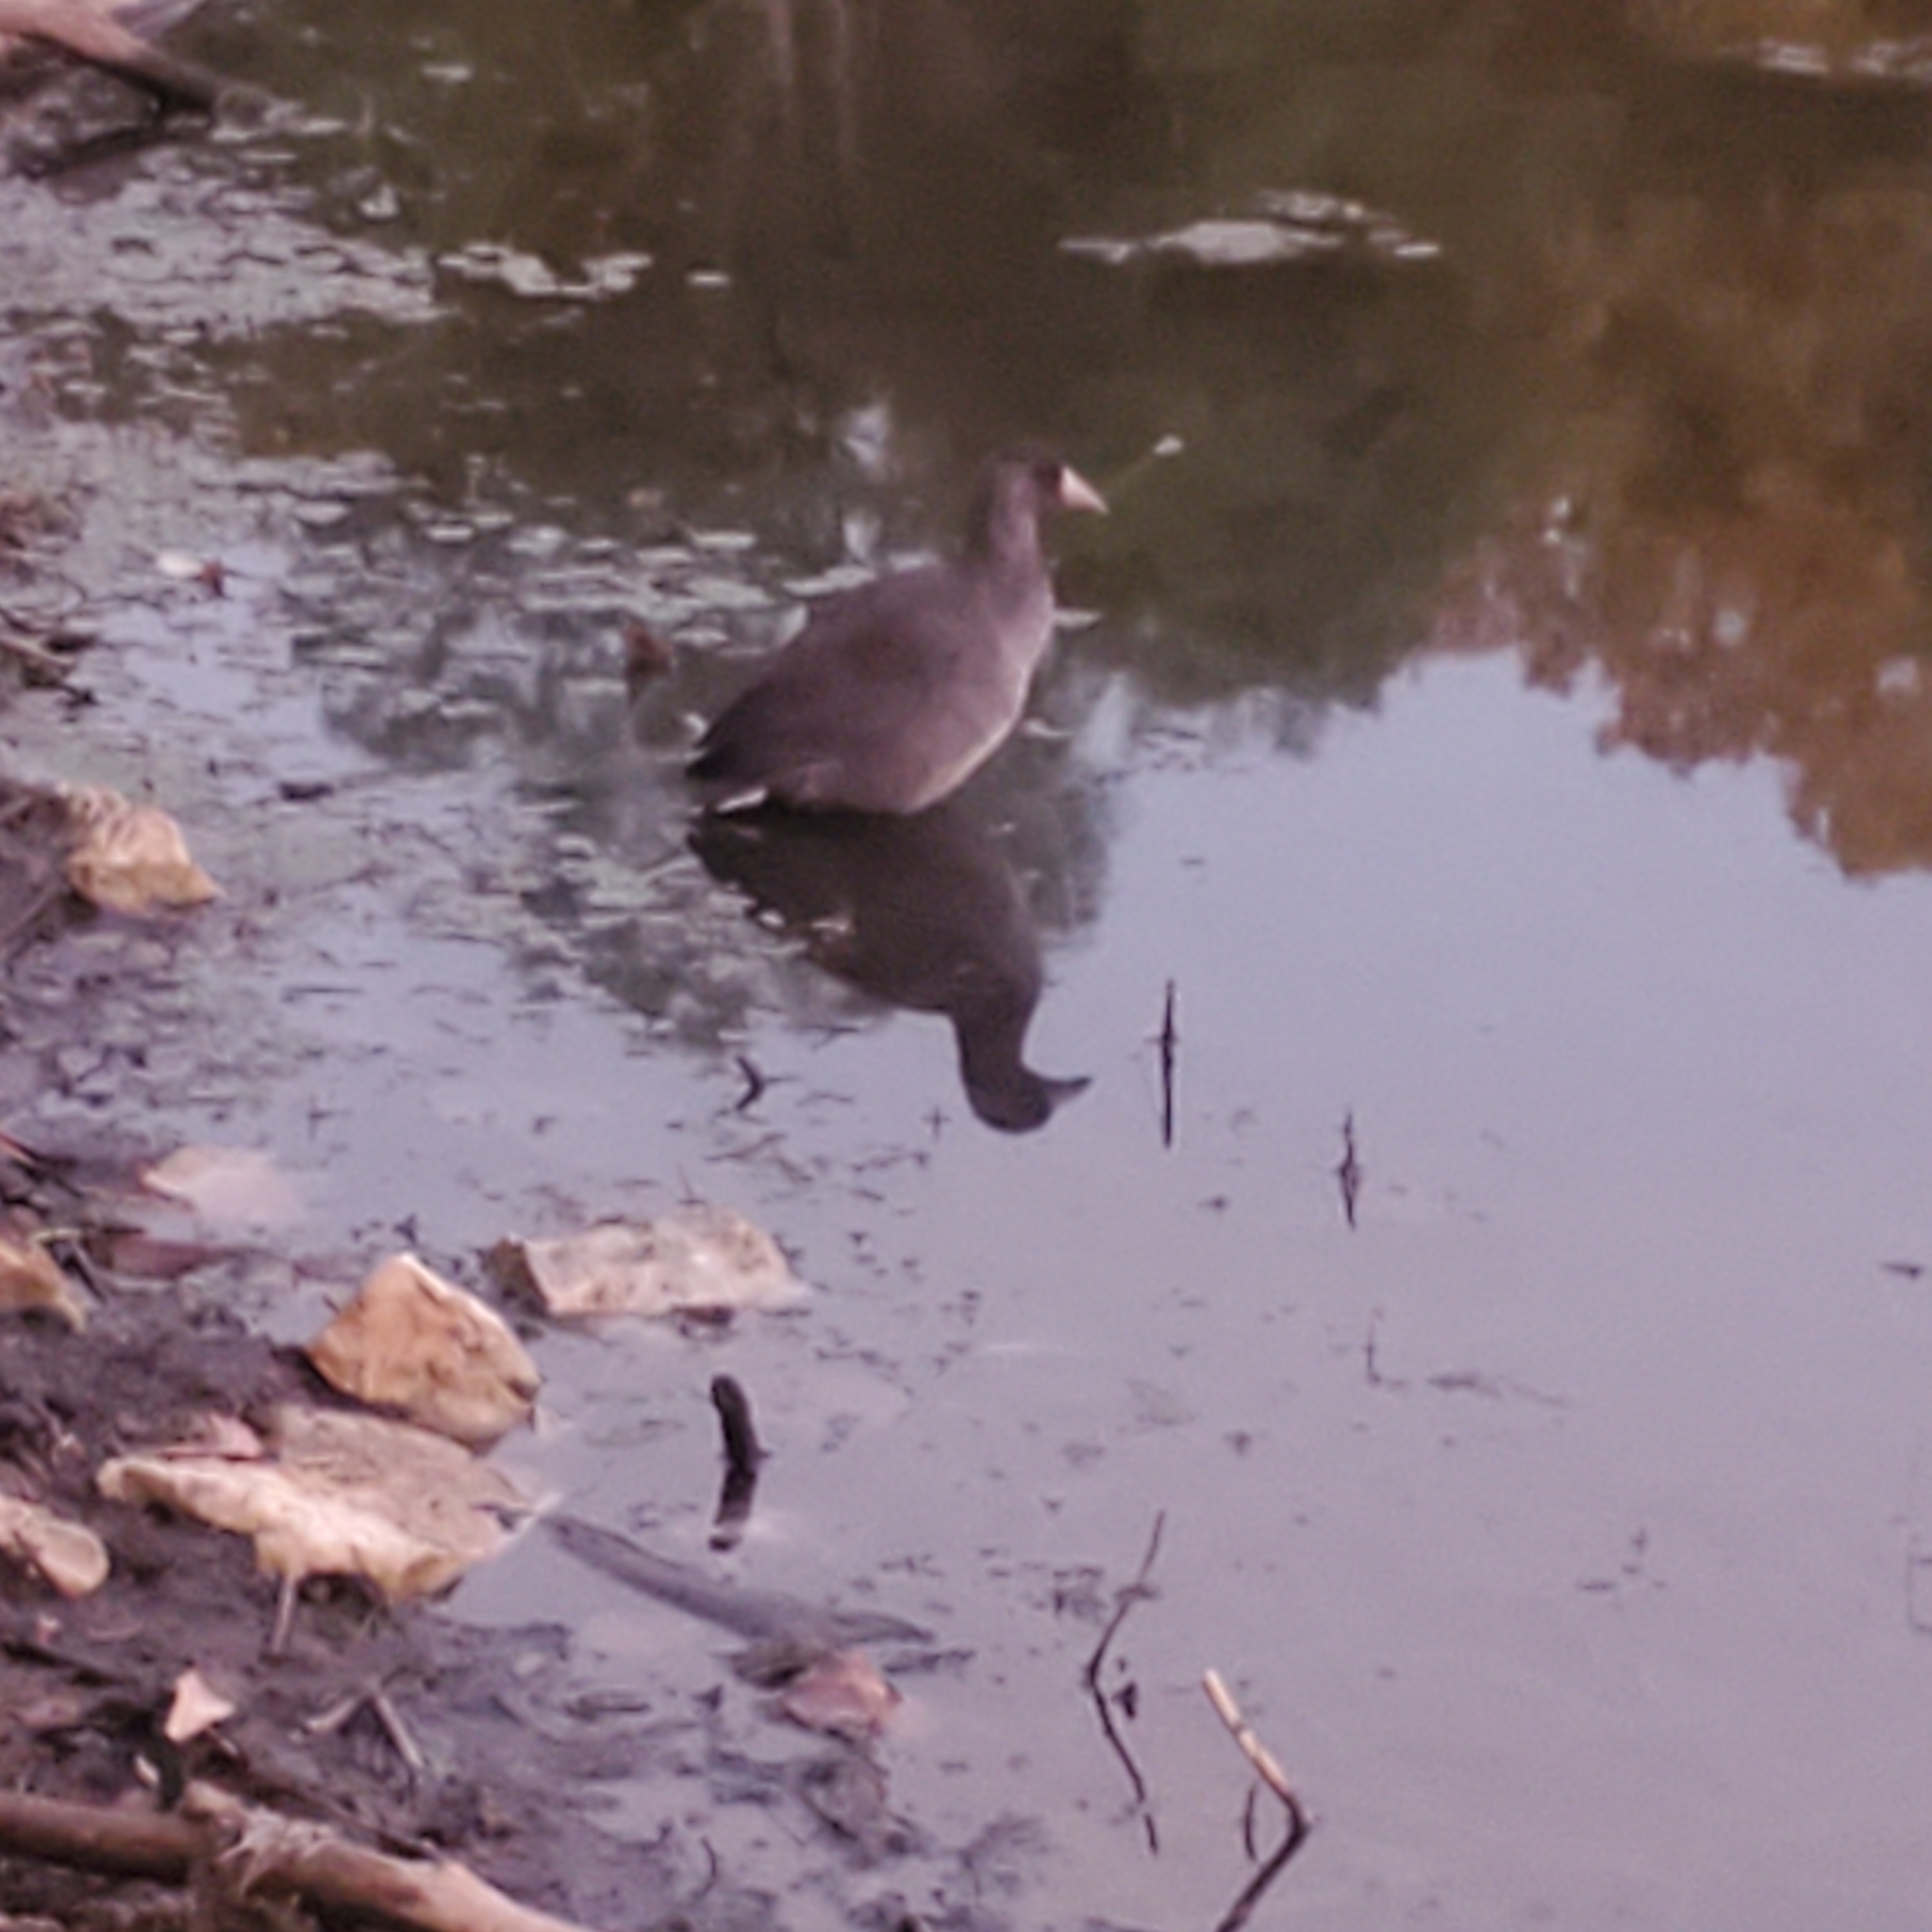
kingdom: Animalia
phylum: Chordata
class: Aves
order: Gruiformes
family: Rallidae
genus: Fulica
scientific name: Fulica americana
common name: American coot
